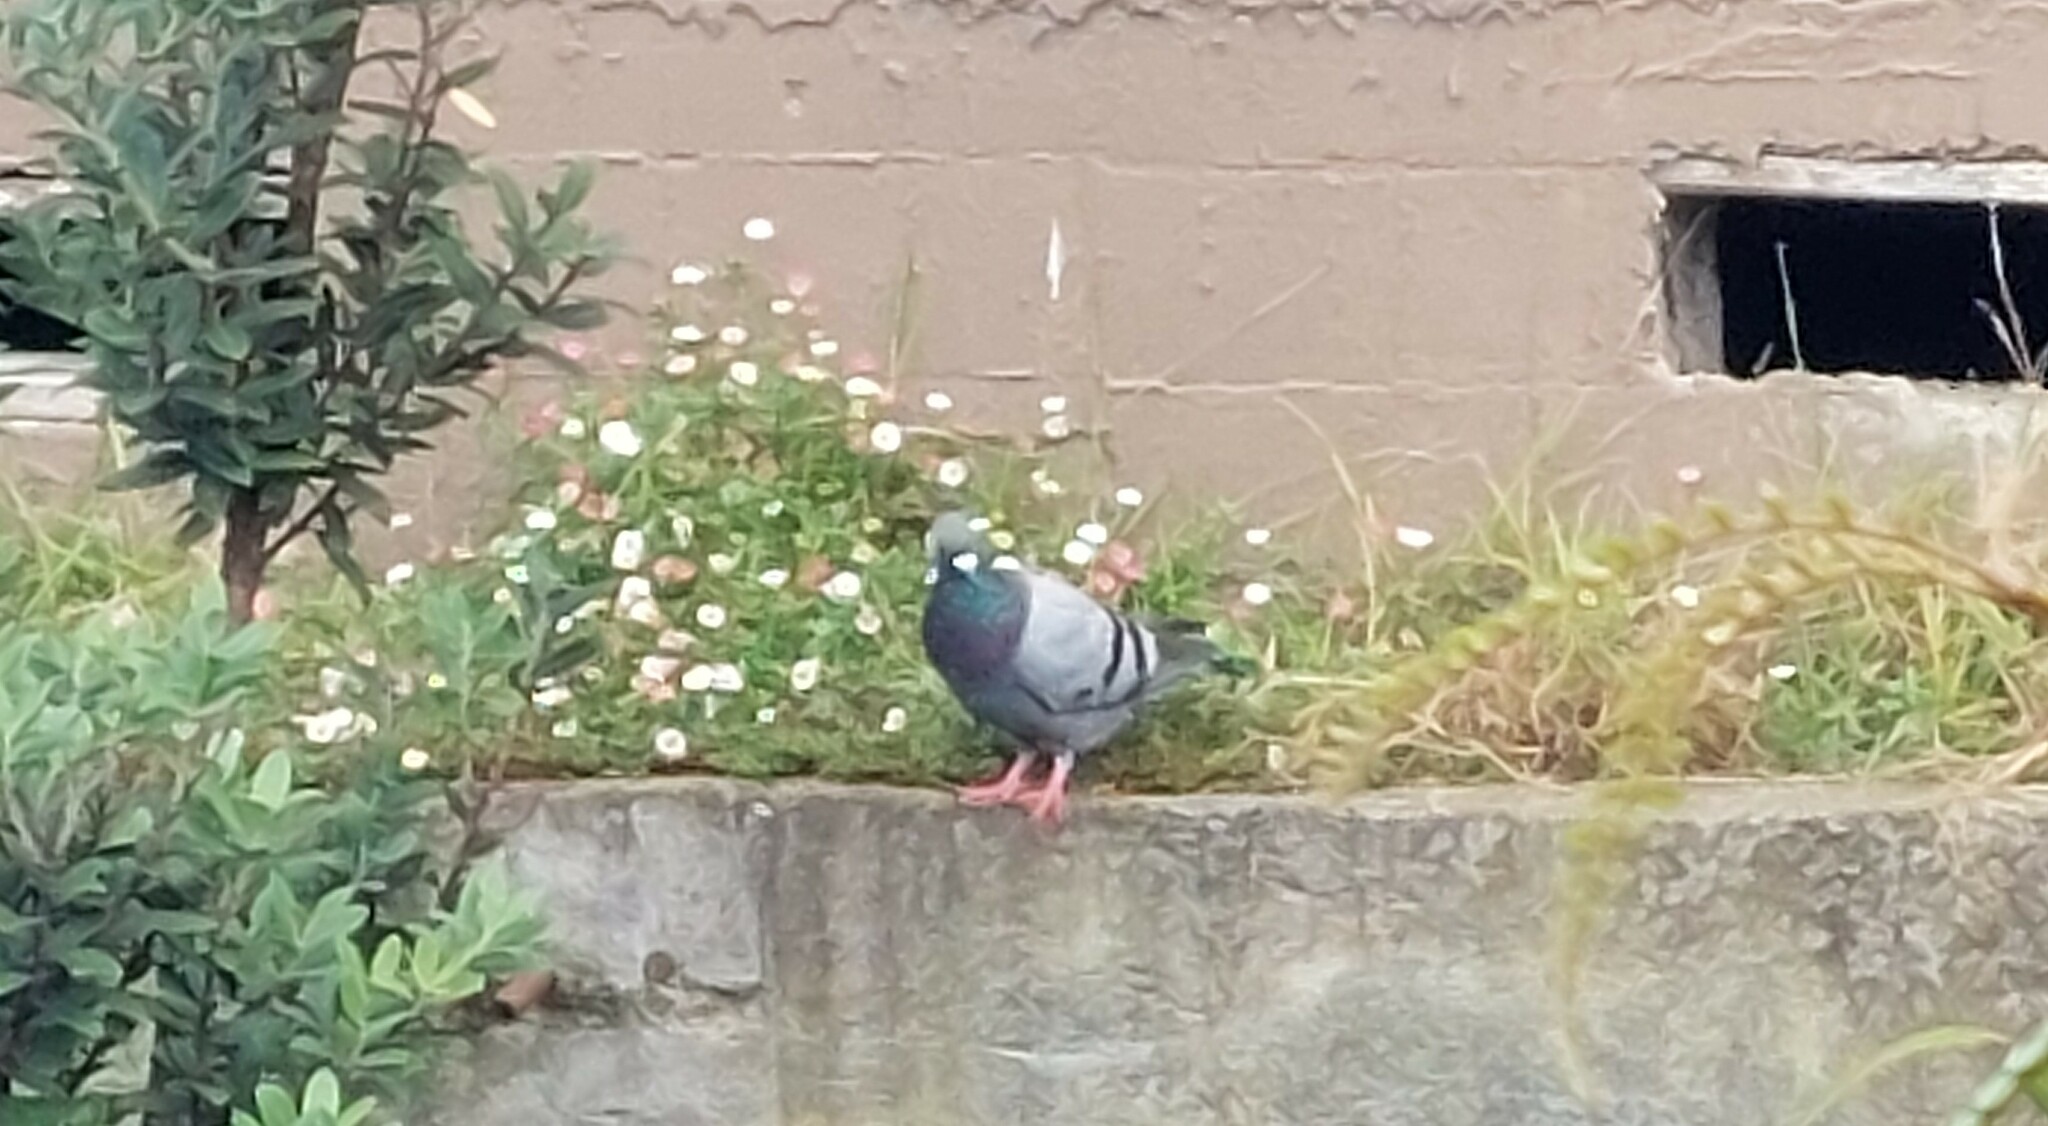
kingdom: Animalia
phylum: Chordata
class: Aves
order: Columbiformes
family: Columbidae
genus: Columba
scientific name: Columba livia
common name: Rock pigeon
